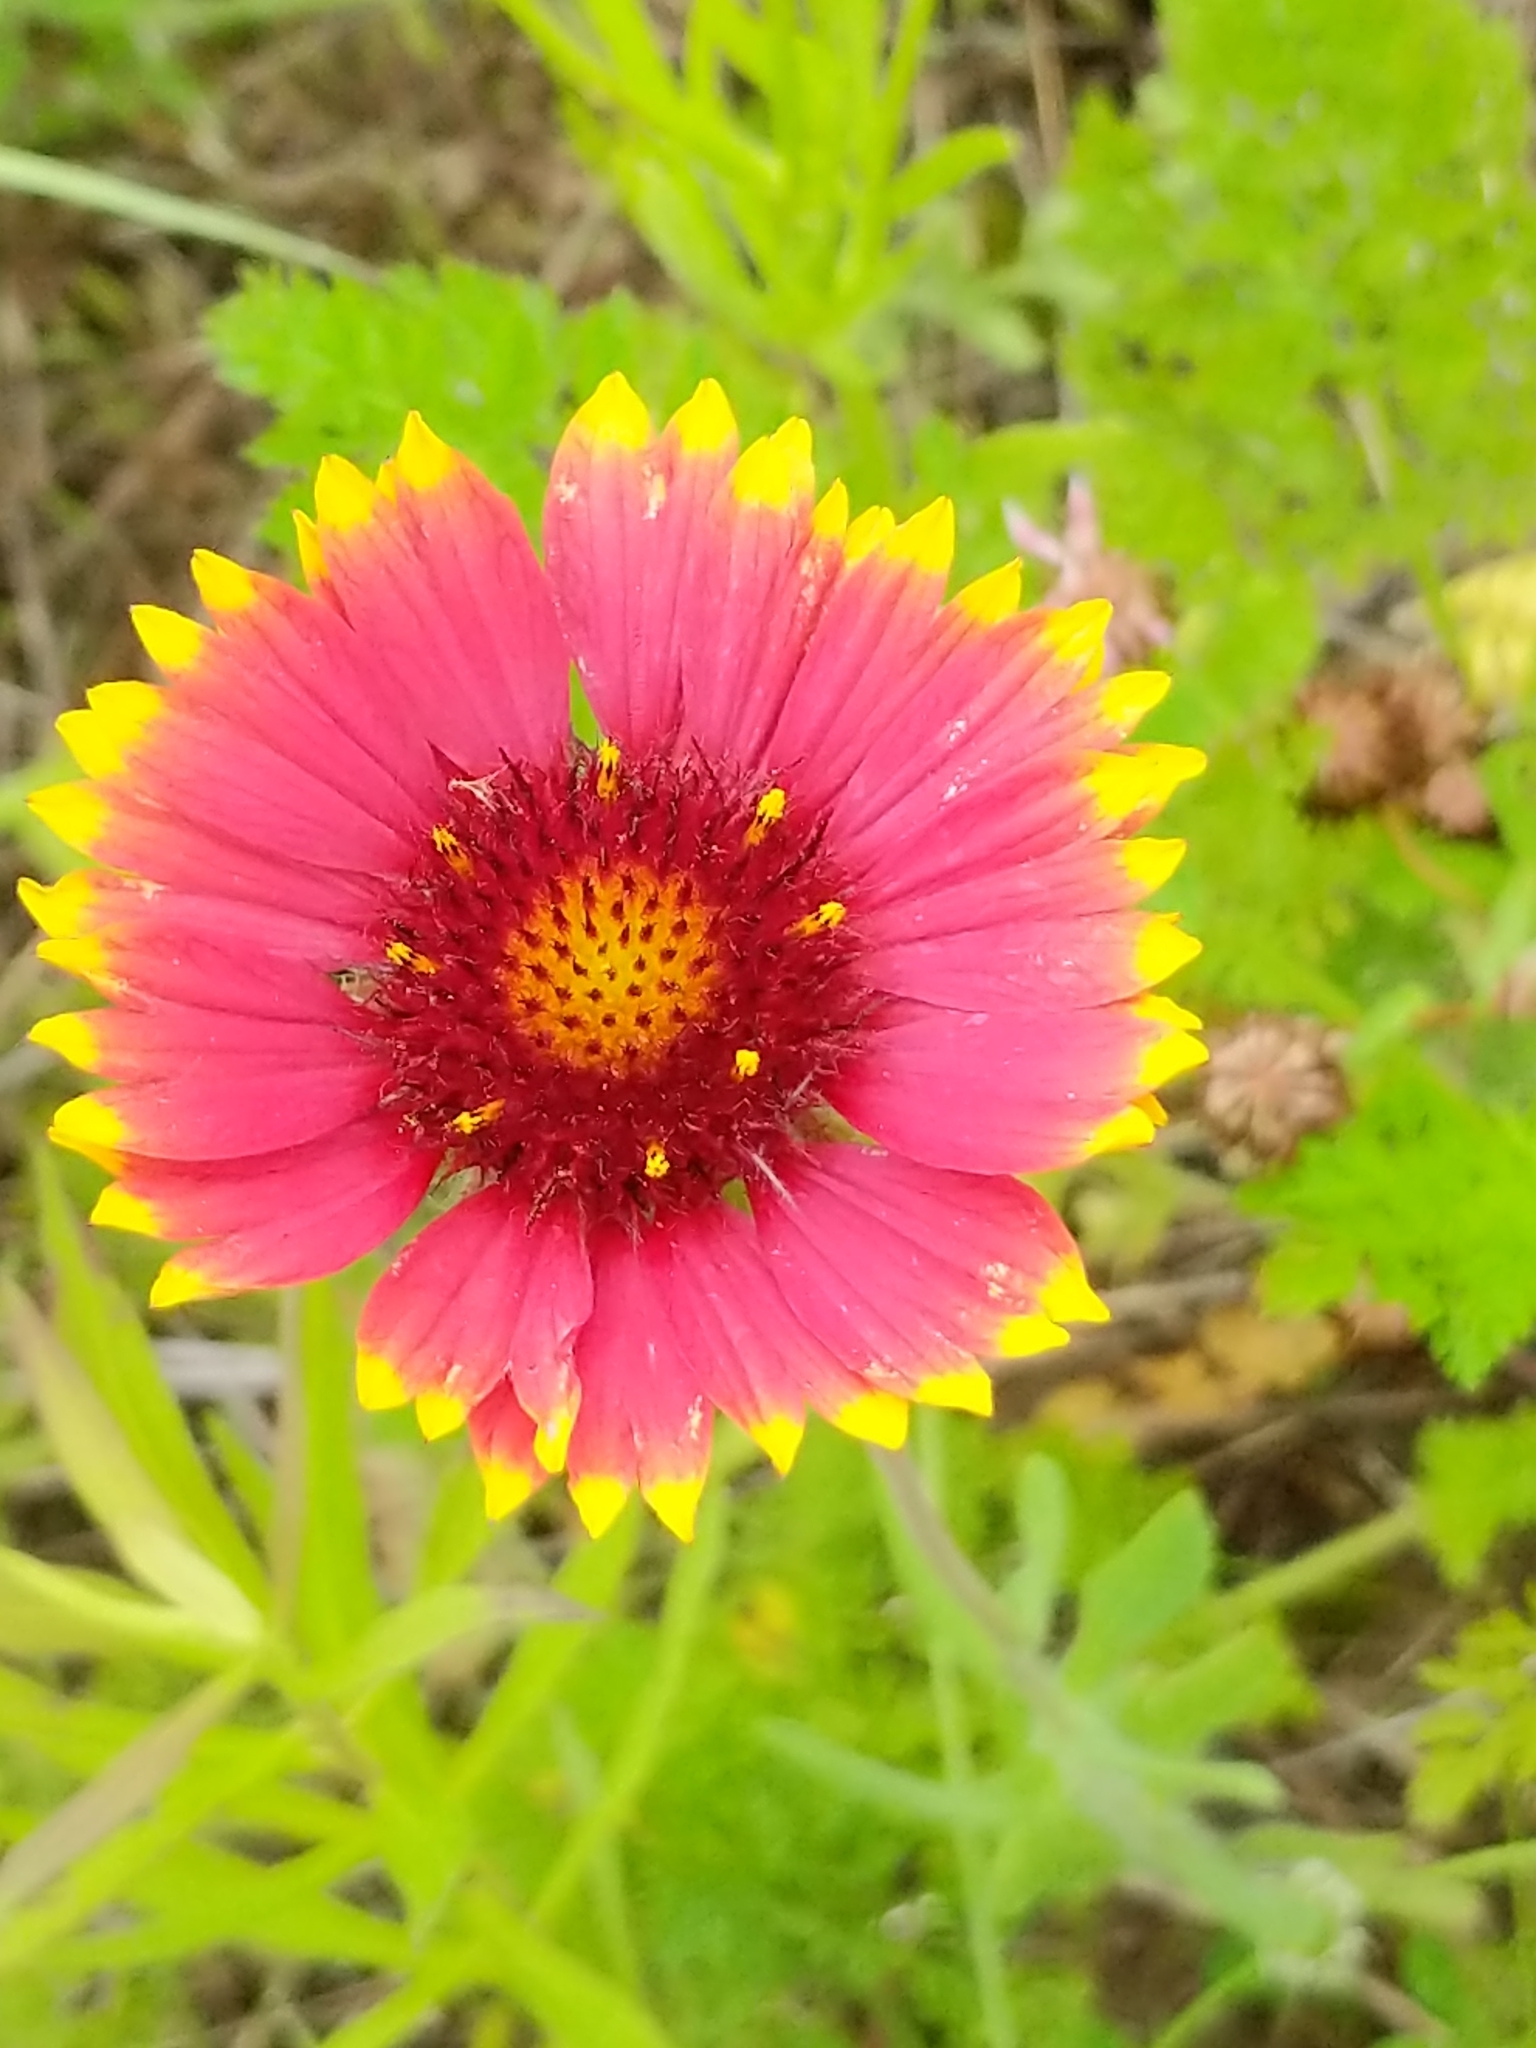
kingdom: Plantae
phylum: Tracheophyta
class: Magnoliopsida
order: Asterales
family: Asteraceae
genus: Gaillardia
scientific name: Gaillardia pulchella
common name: Firewheel
